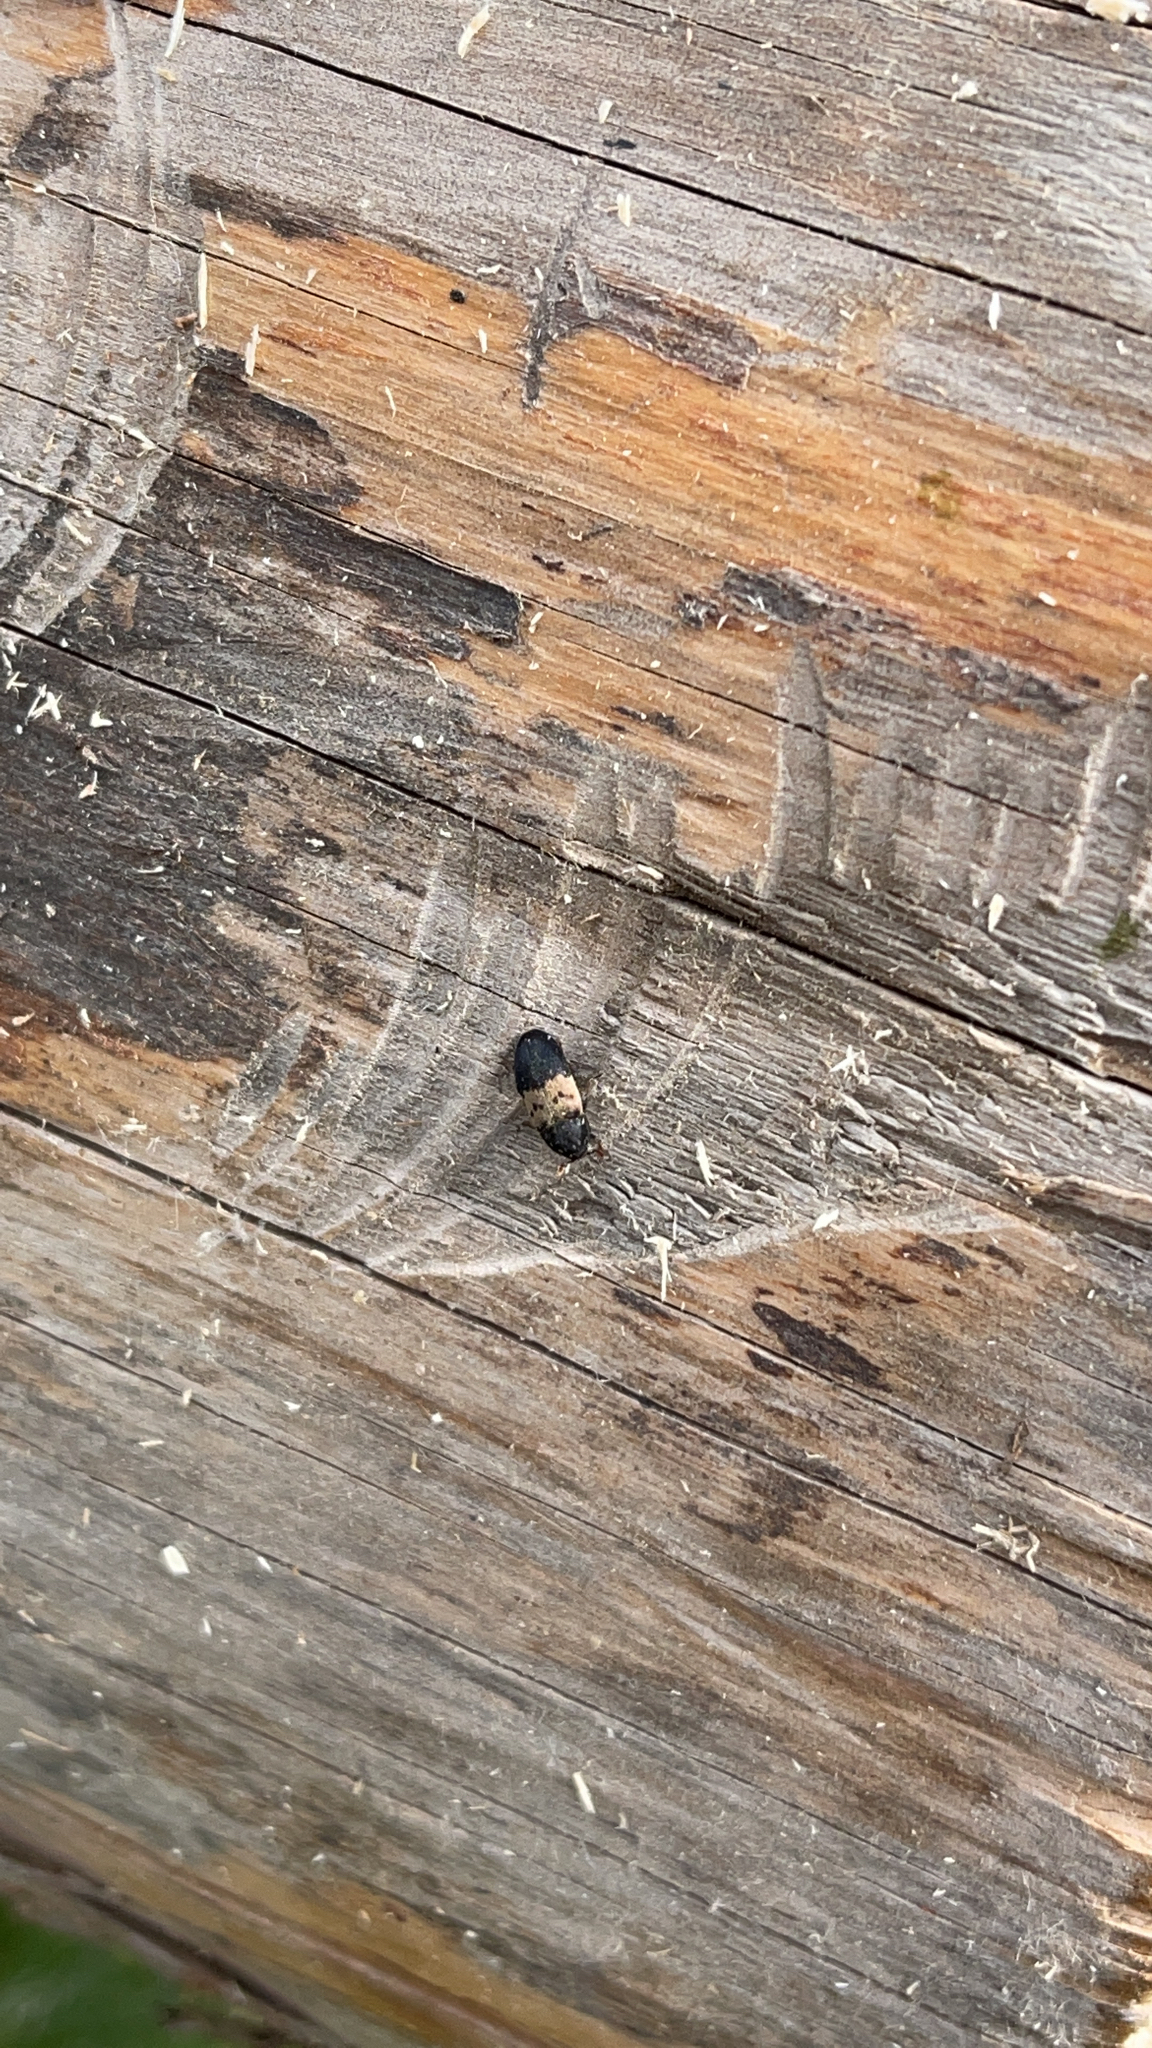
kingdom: Animalia
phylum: Arthropoda
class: Insecta
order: Coleoptera
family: Dermestidae
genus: Dermestes
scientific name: Dermestes lardarius
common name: Larder beetle
